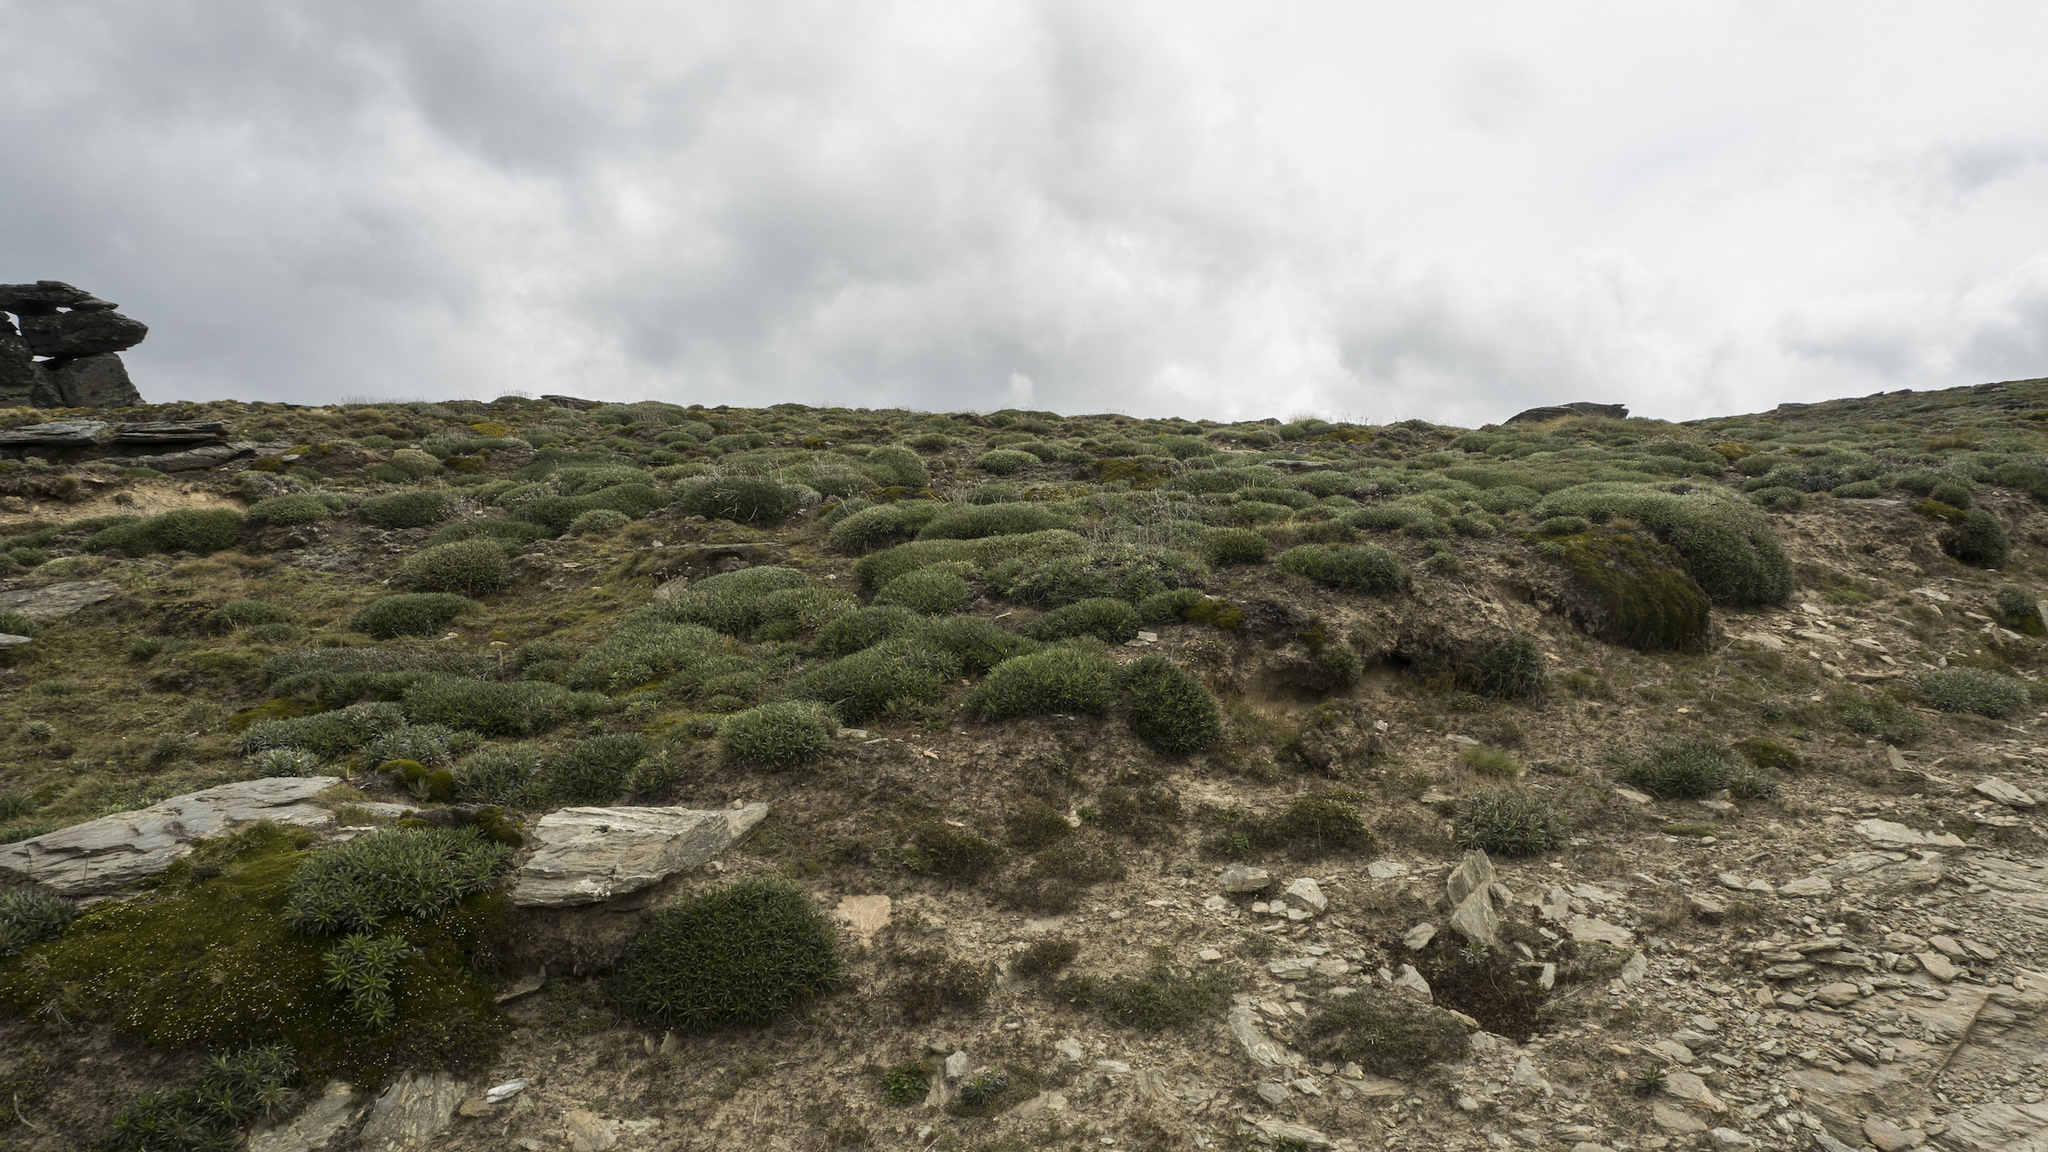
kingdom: Plantae
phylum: Tracheophyta
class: Magnoliopsida
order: Asterales
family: Asteraceae
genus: Celmisia
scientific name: Celmisia viscosa
